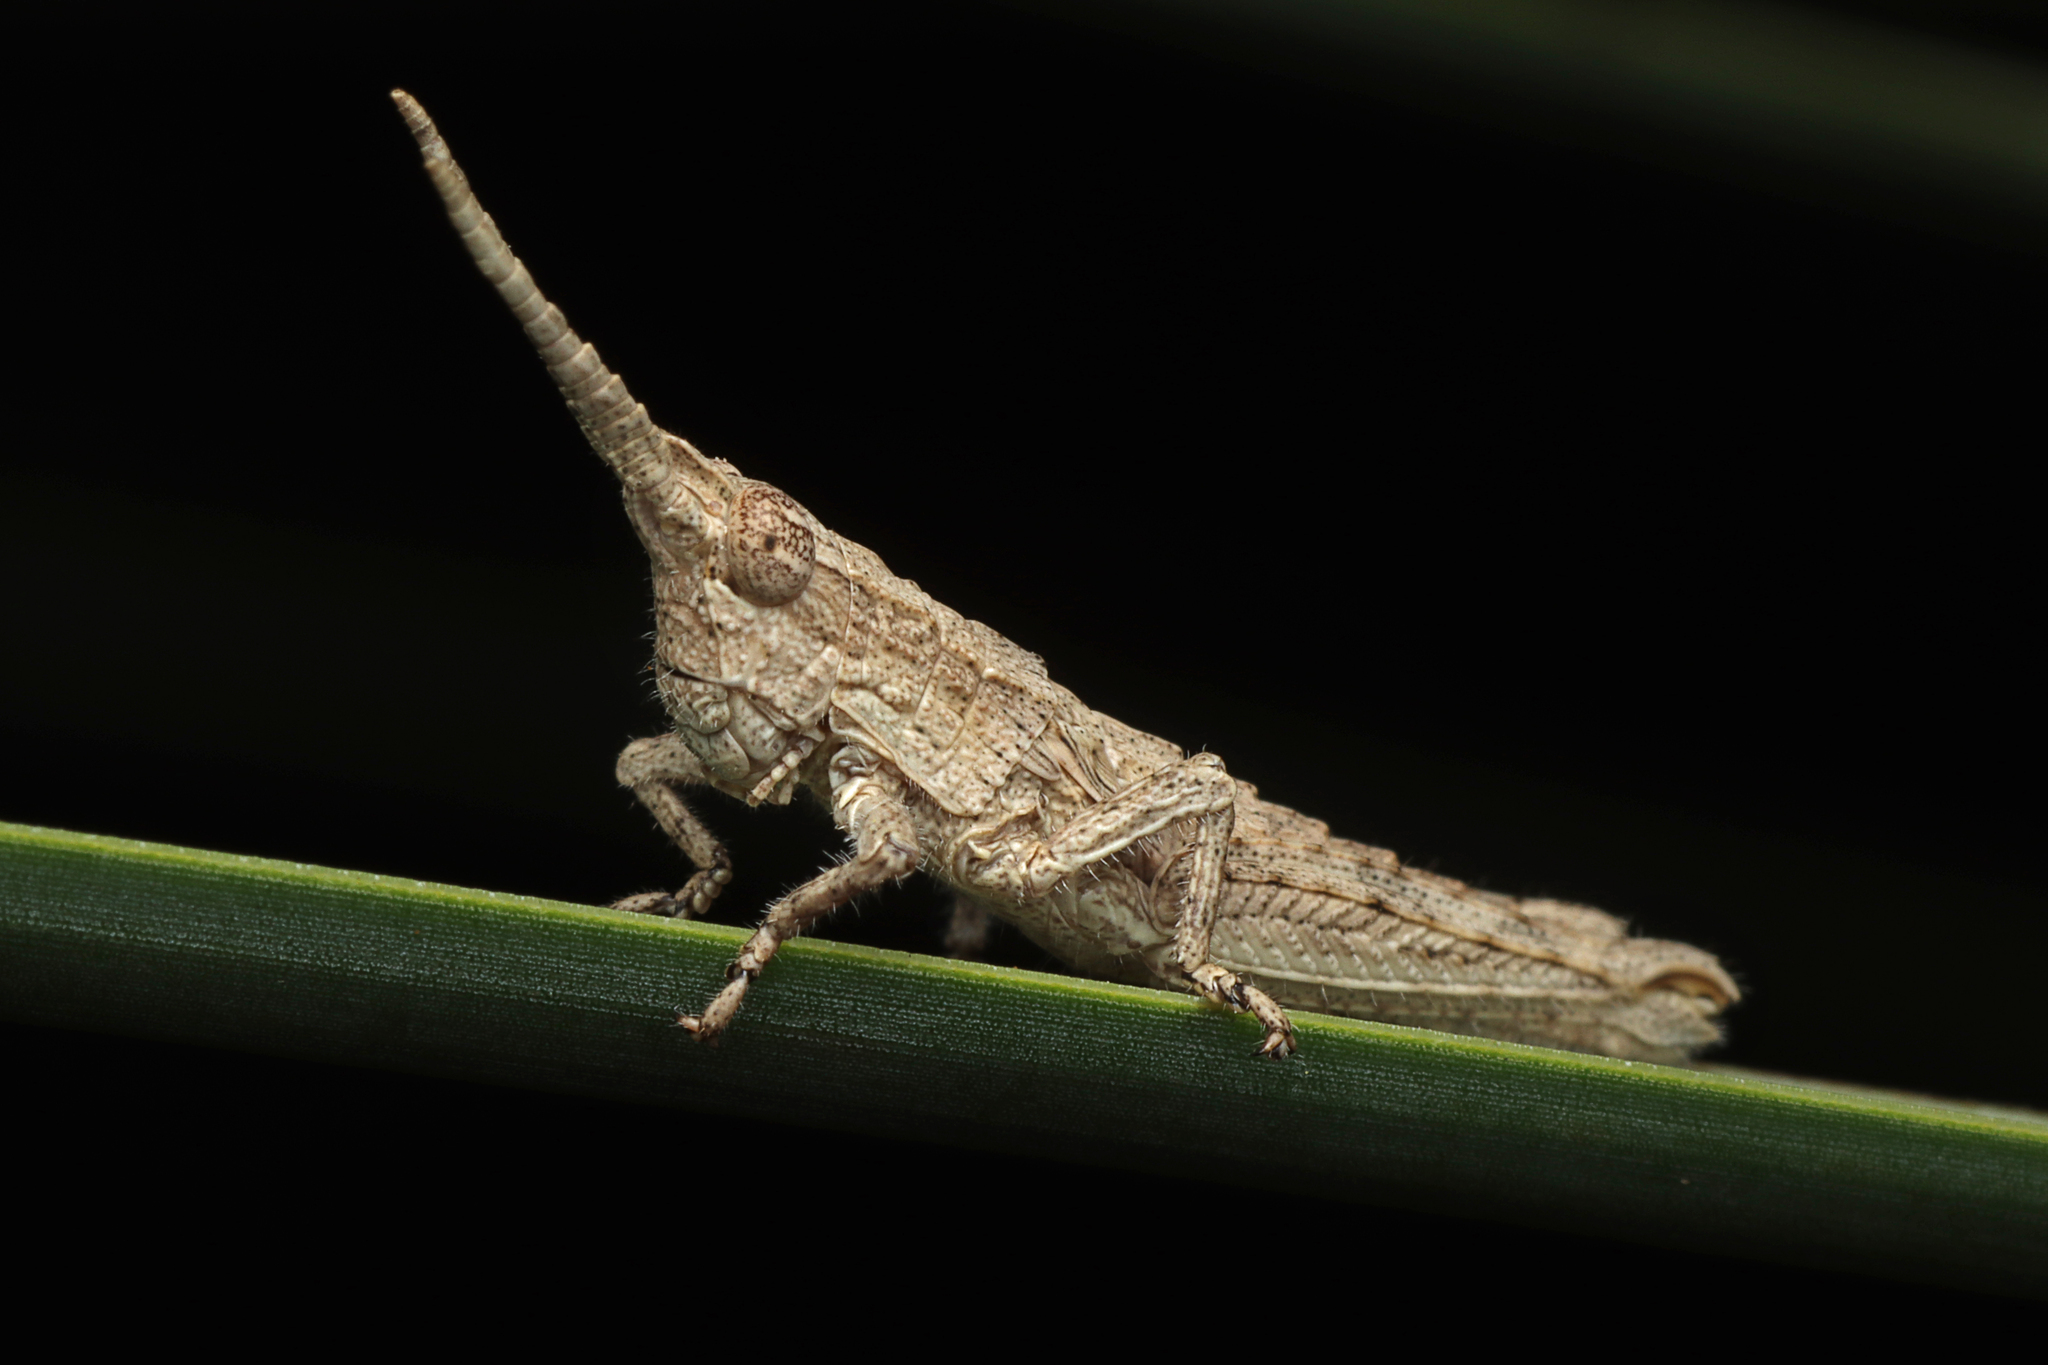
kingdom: Animalia
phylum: Arthropoda
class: Insecta
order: Orthoptera
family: Acrididae
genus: Coryphistes
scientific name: Coryphistes ruricola
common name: Bark-mimicking grasshopper
